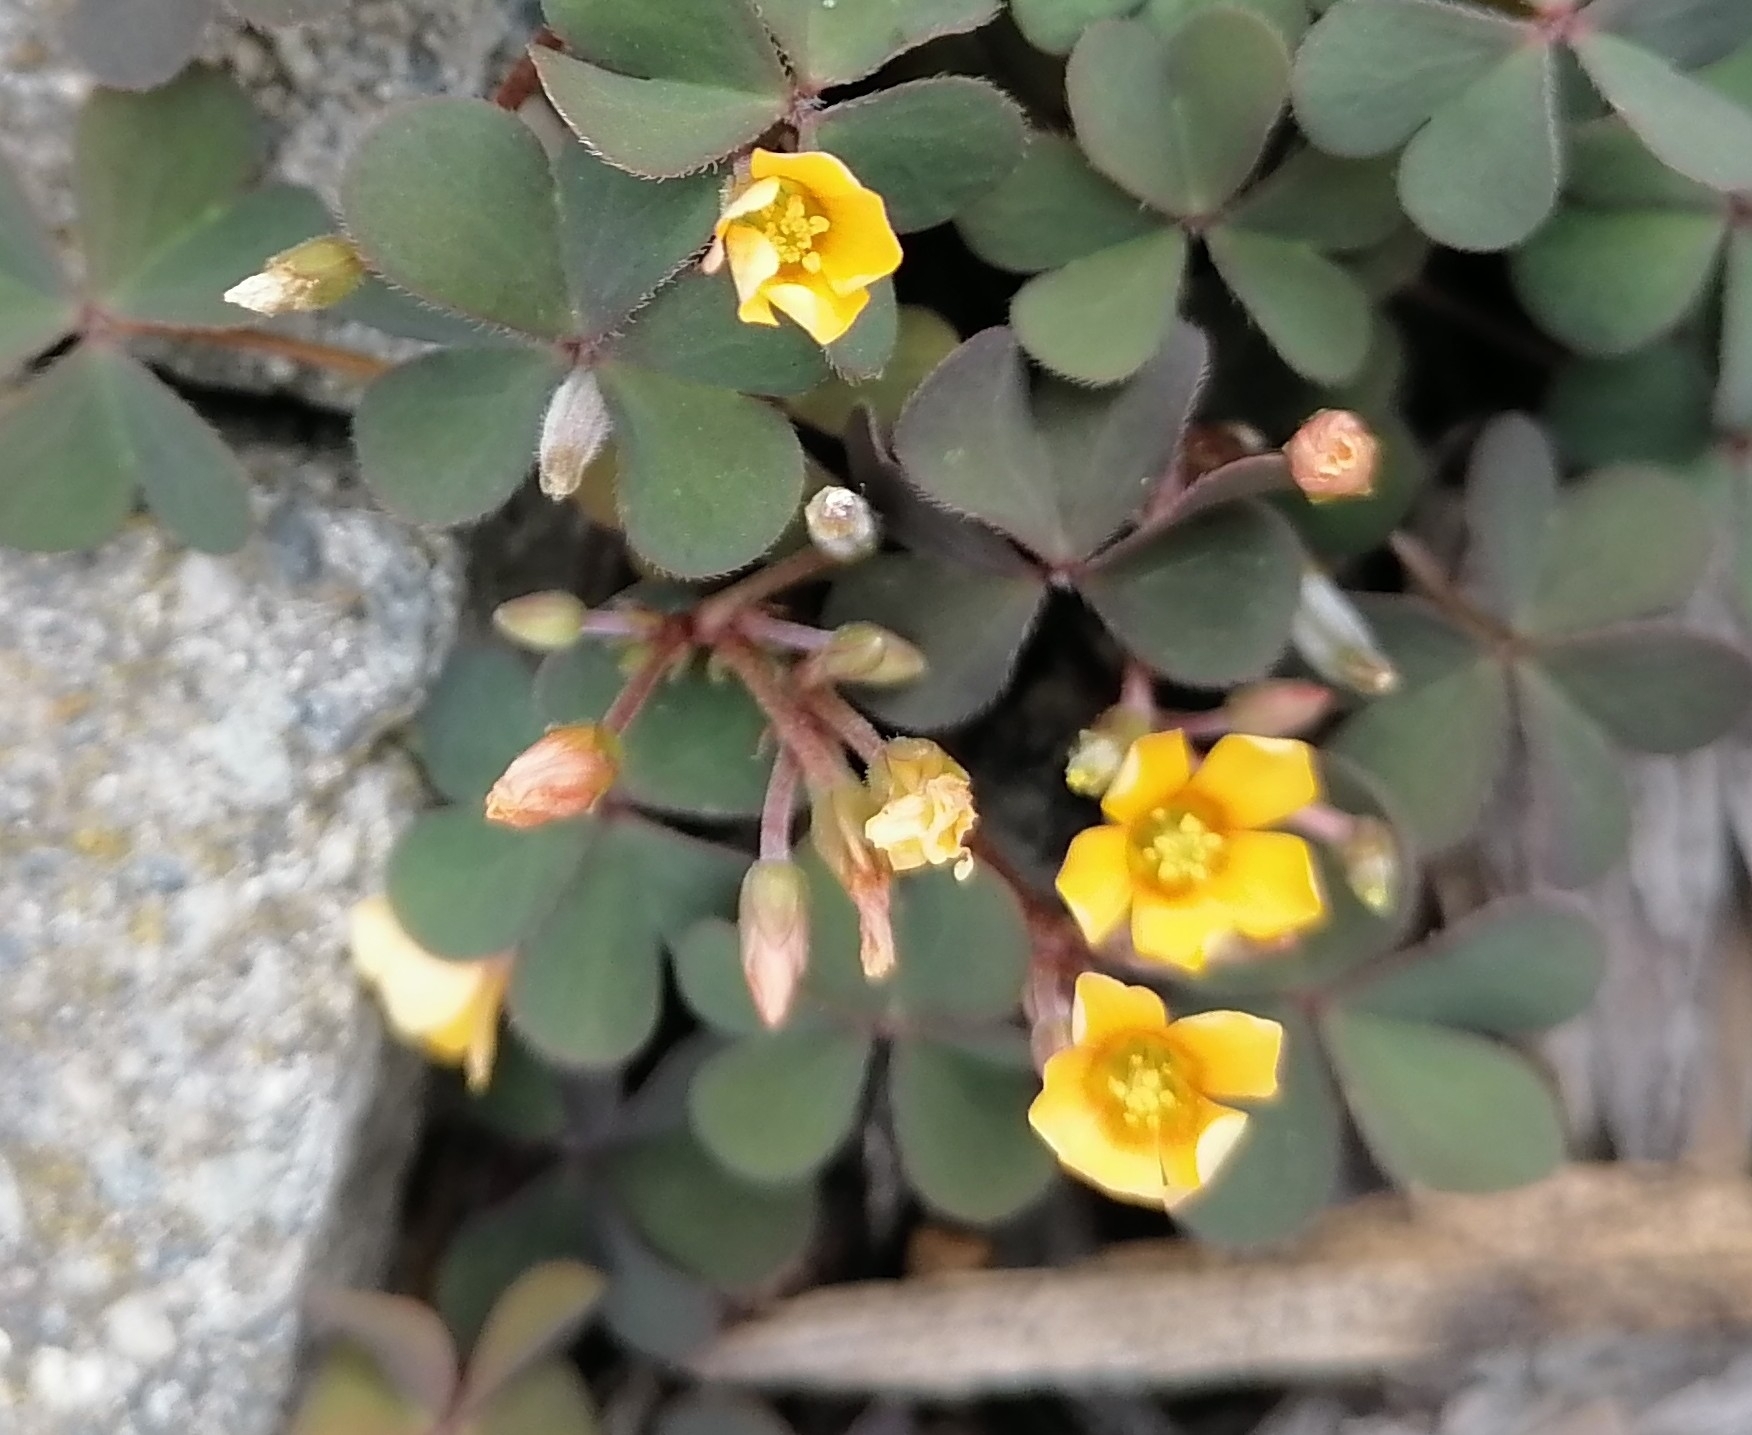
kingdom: Plantae
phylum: Tracheophyta
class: Magnoliopsida
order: Oxalidales
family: Oxalidaceae
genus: Oxalis
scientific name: Oxalis corniculata
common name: Procumbent yellow-sorrel
